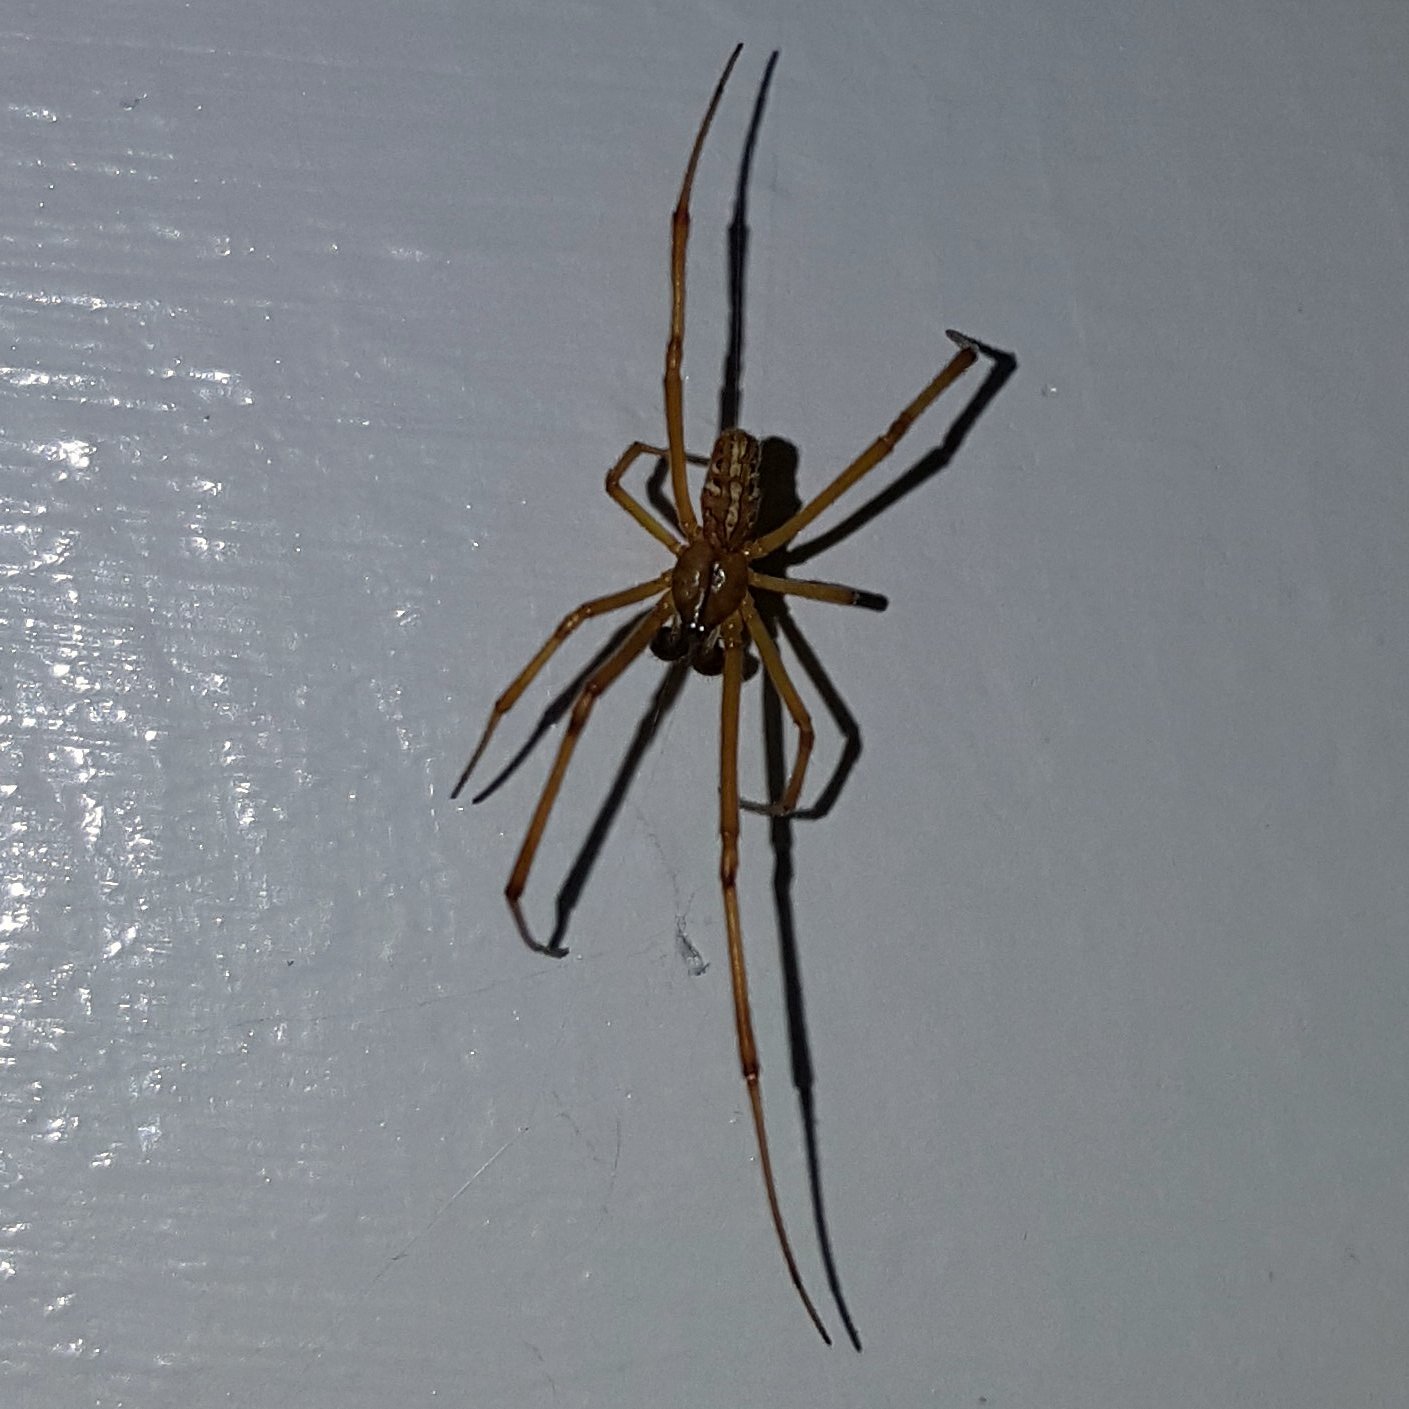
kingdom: Animalia
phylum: Arthropoda
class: Arachnida
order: Araneae
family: Theridiidae
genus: Latrodectus
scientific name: Latrodectus hesperus
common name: Western black widow
